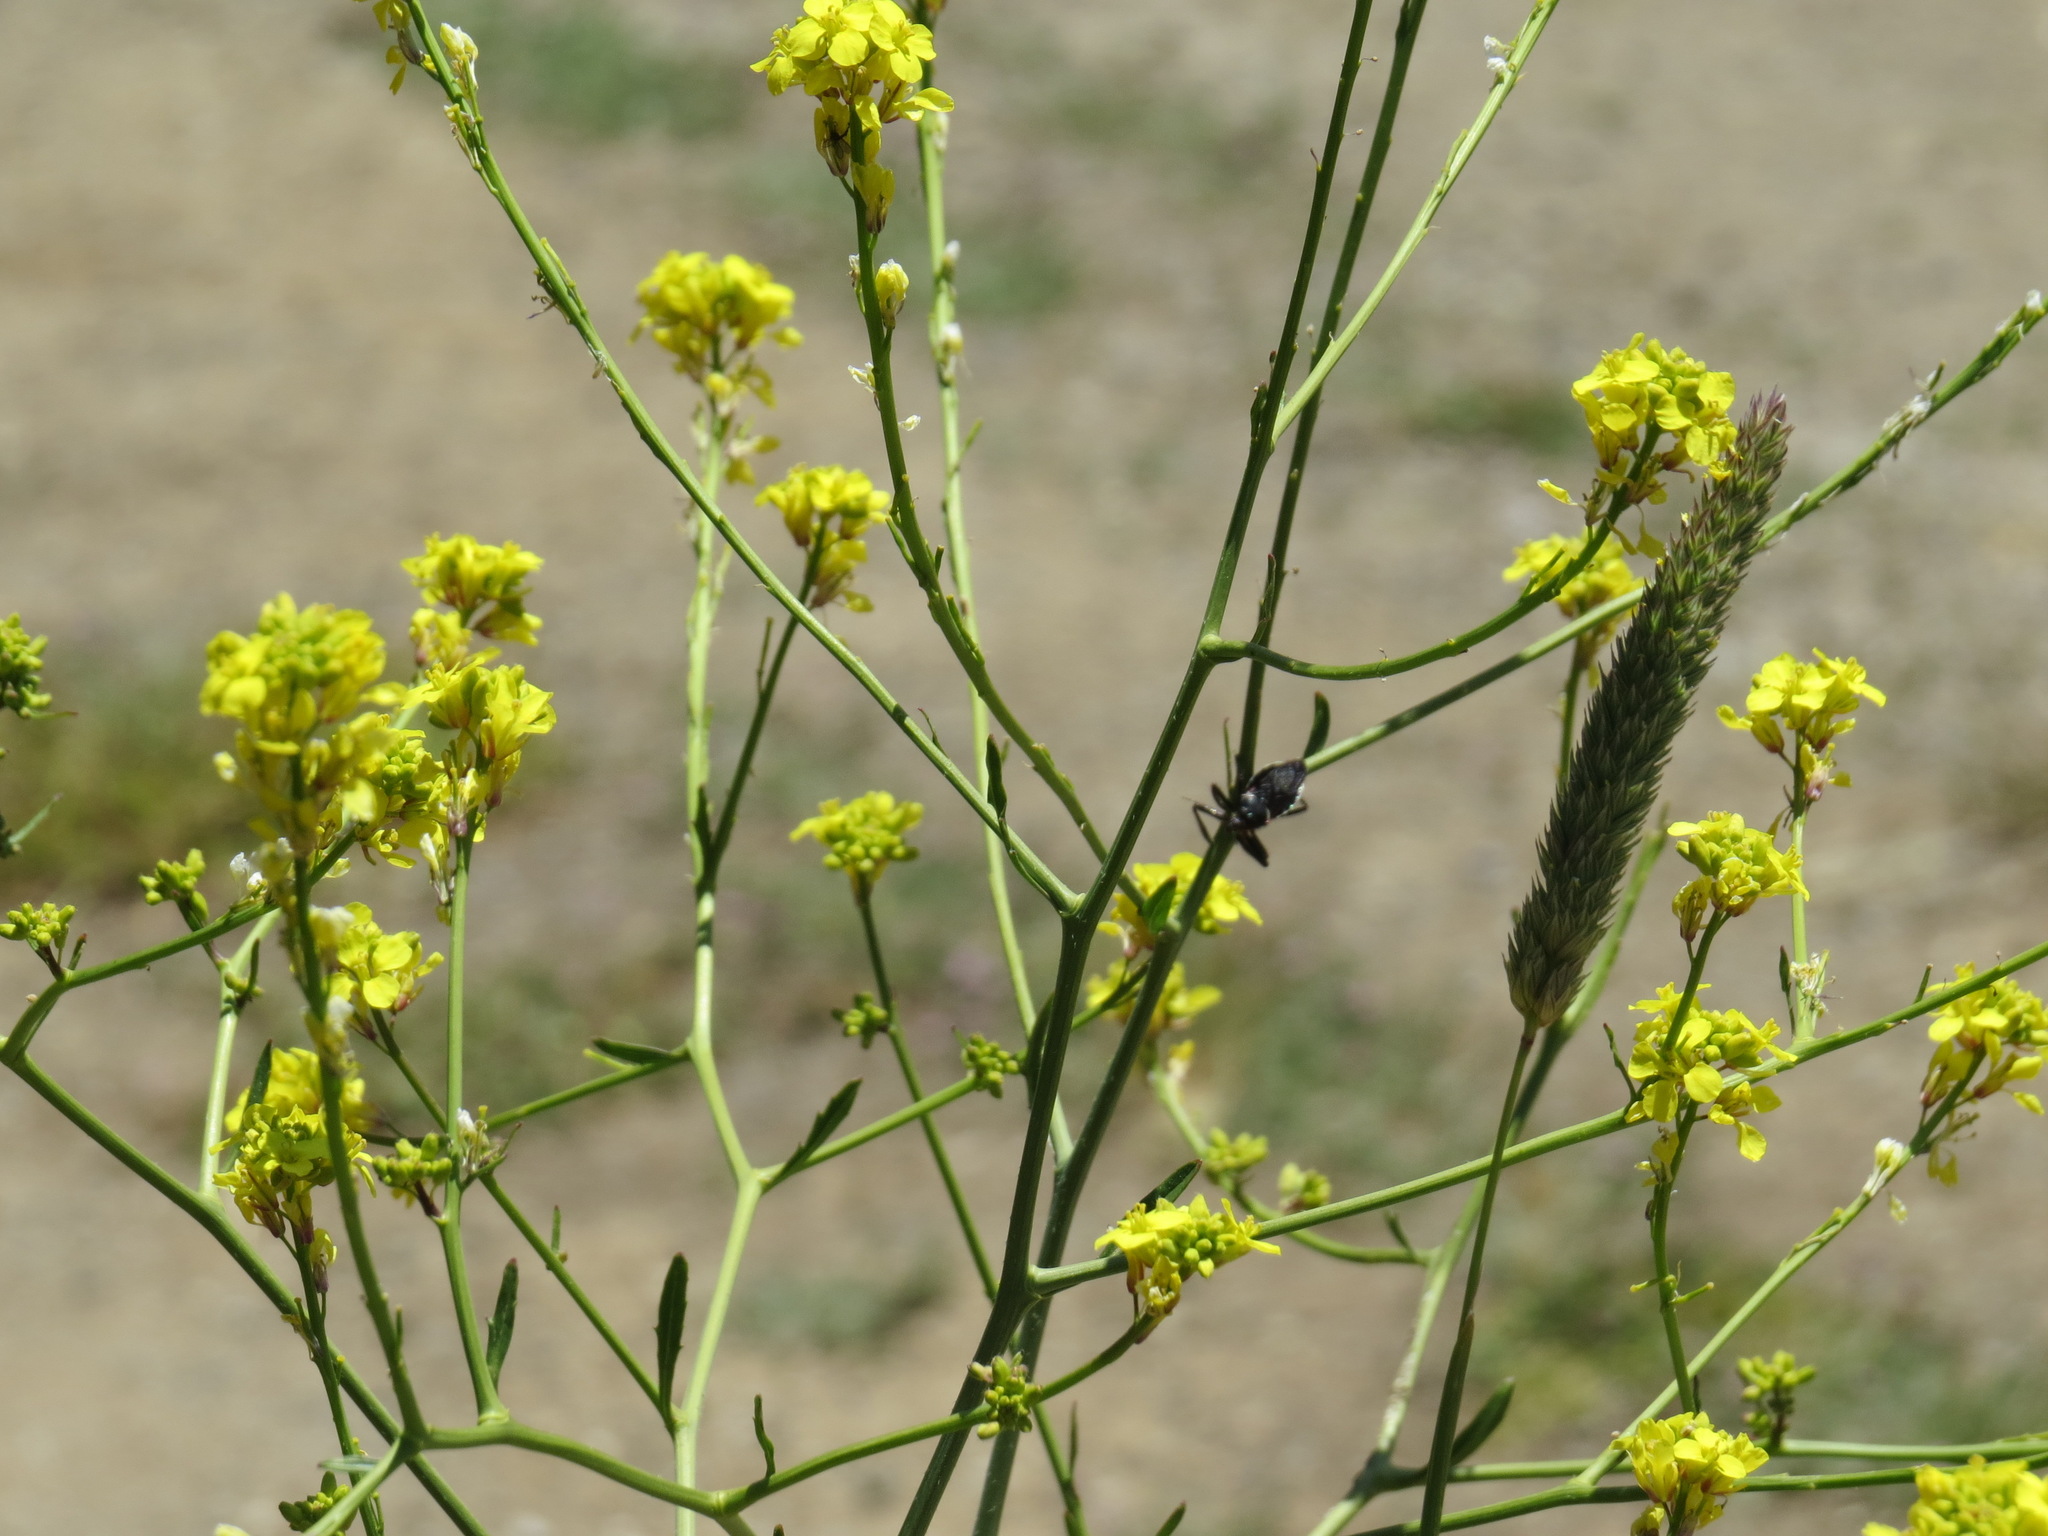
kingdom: Animalia
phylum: Arthropoda
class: Insecta
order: Hemiptera
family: Reduviidae
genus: Apiomerus
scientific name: Apiomerus californicus
